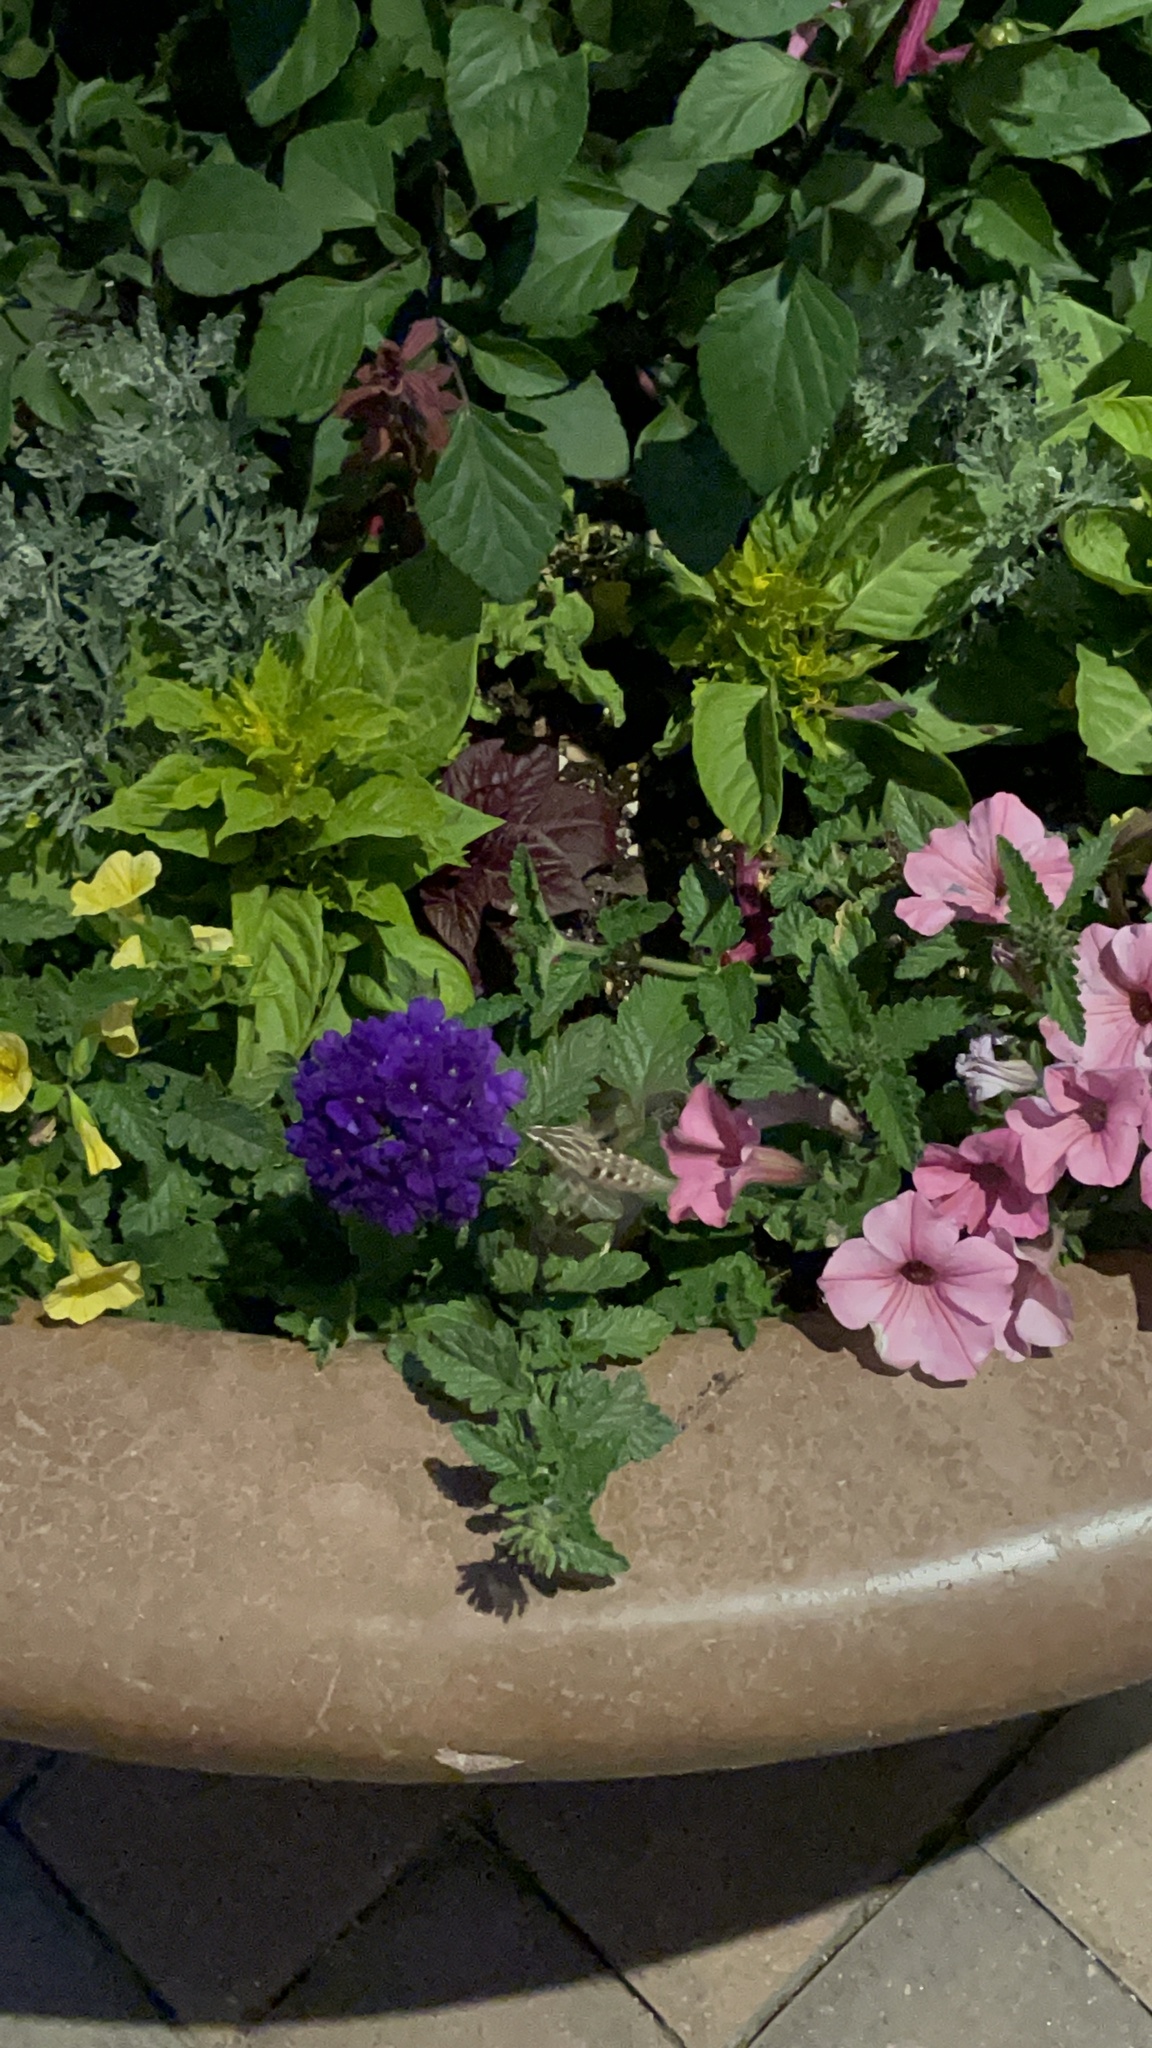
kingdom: Animalia
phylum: Arthropoda
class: Insecta
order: Lepidoptera
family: Sphingidae
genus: Hyles
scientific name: Hyles lineata
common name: White-lined sphinx
